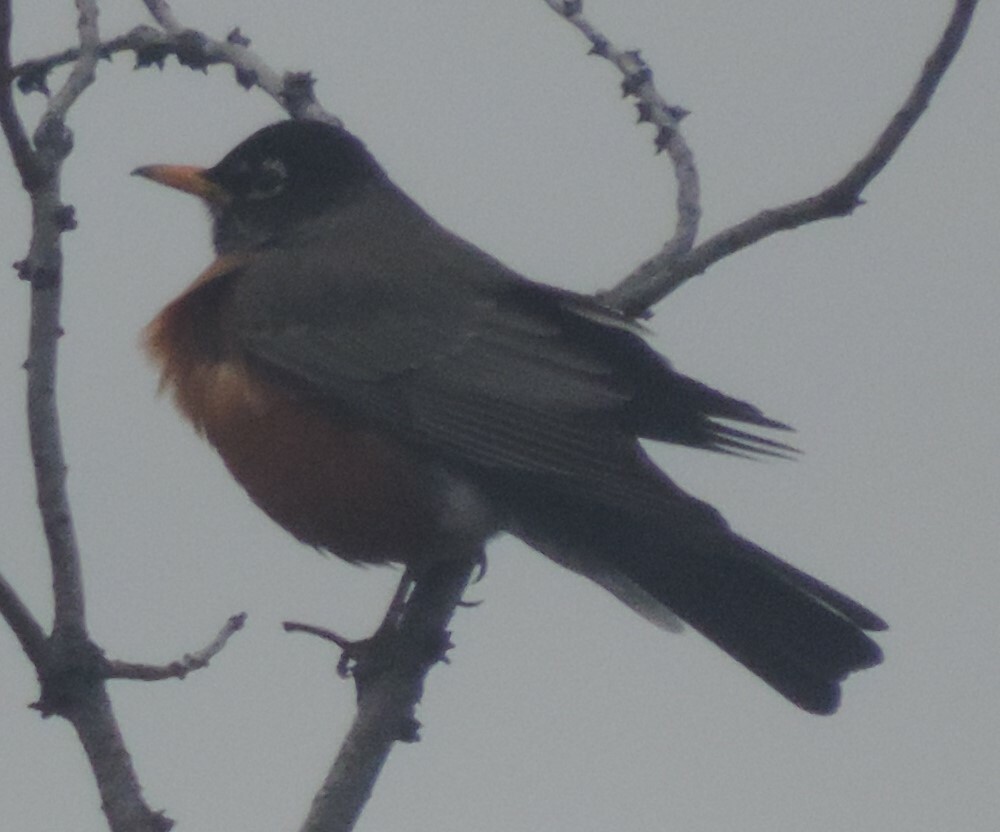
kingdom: Animalia
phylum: Chordata
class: Aves
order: Passeriformes
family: Turdidae
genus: Turdus
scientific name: Turdus migratorius
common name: American robin
